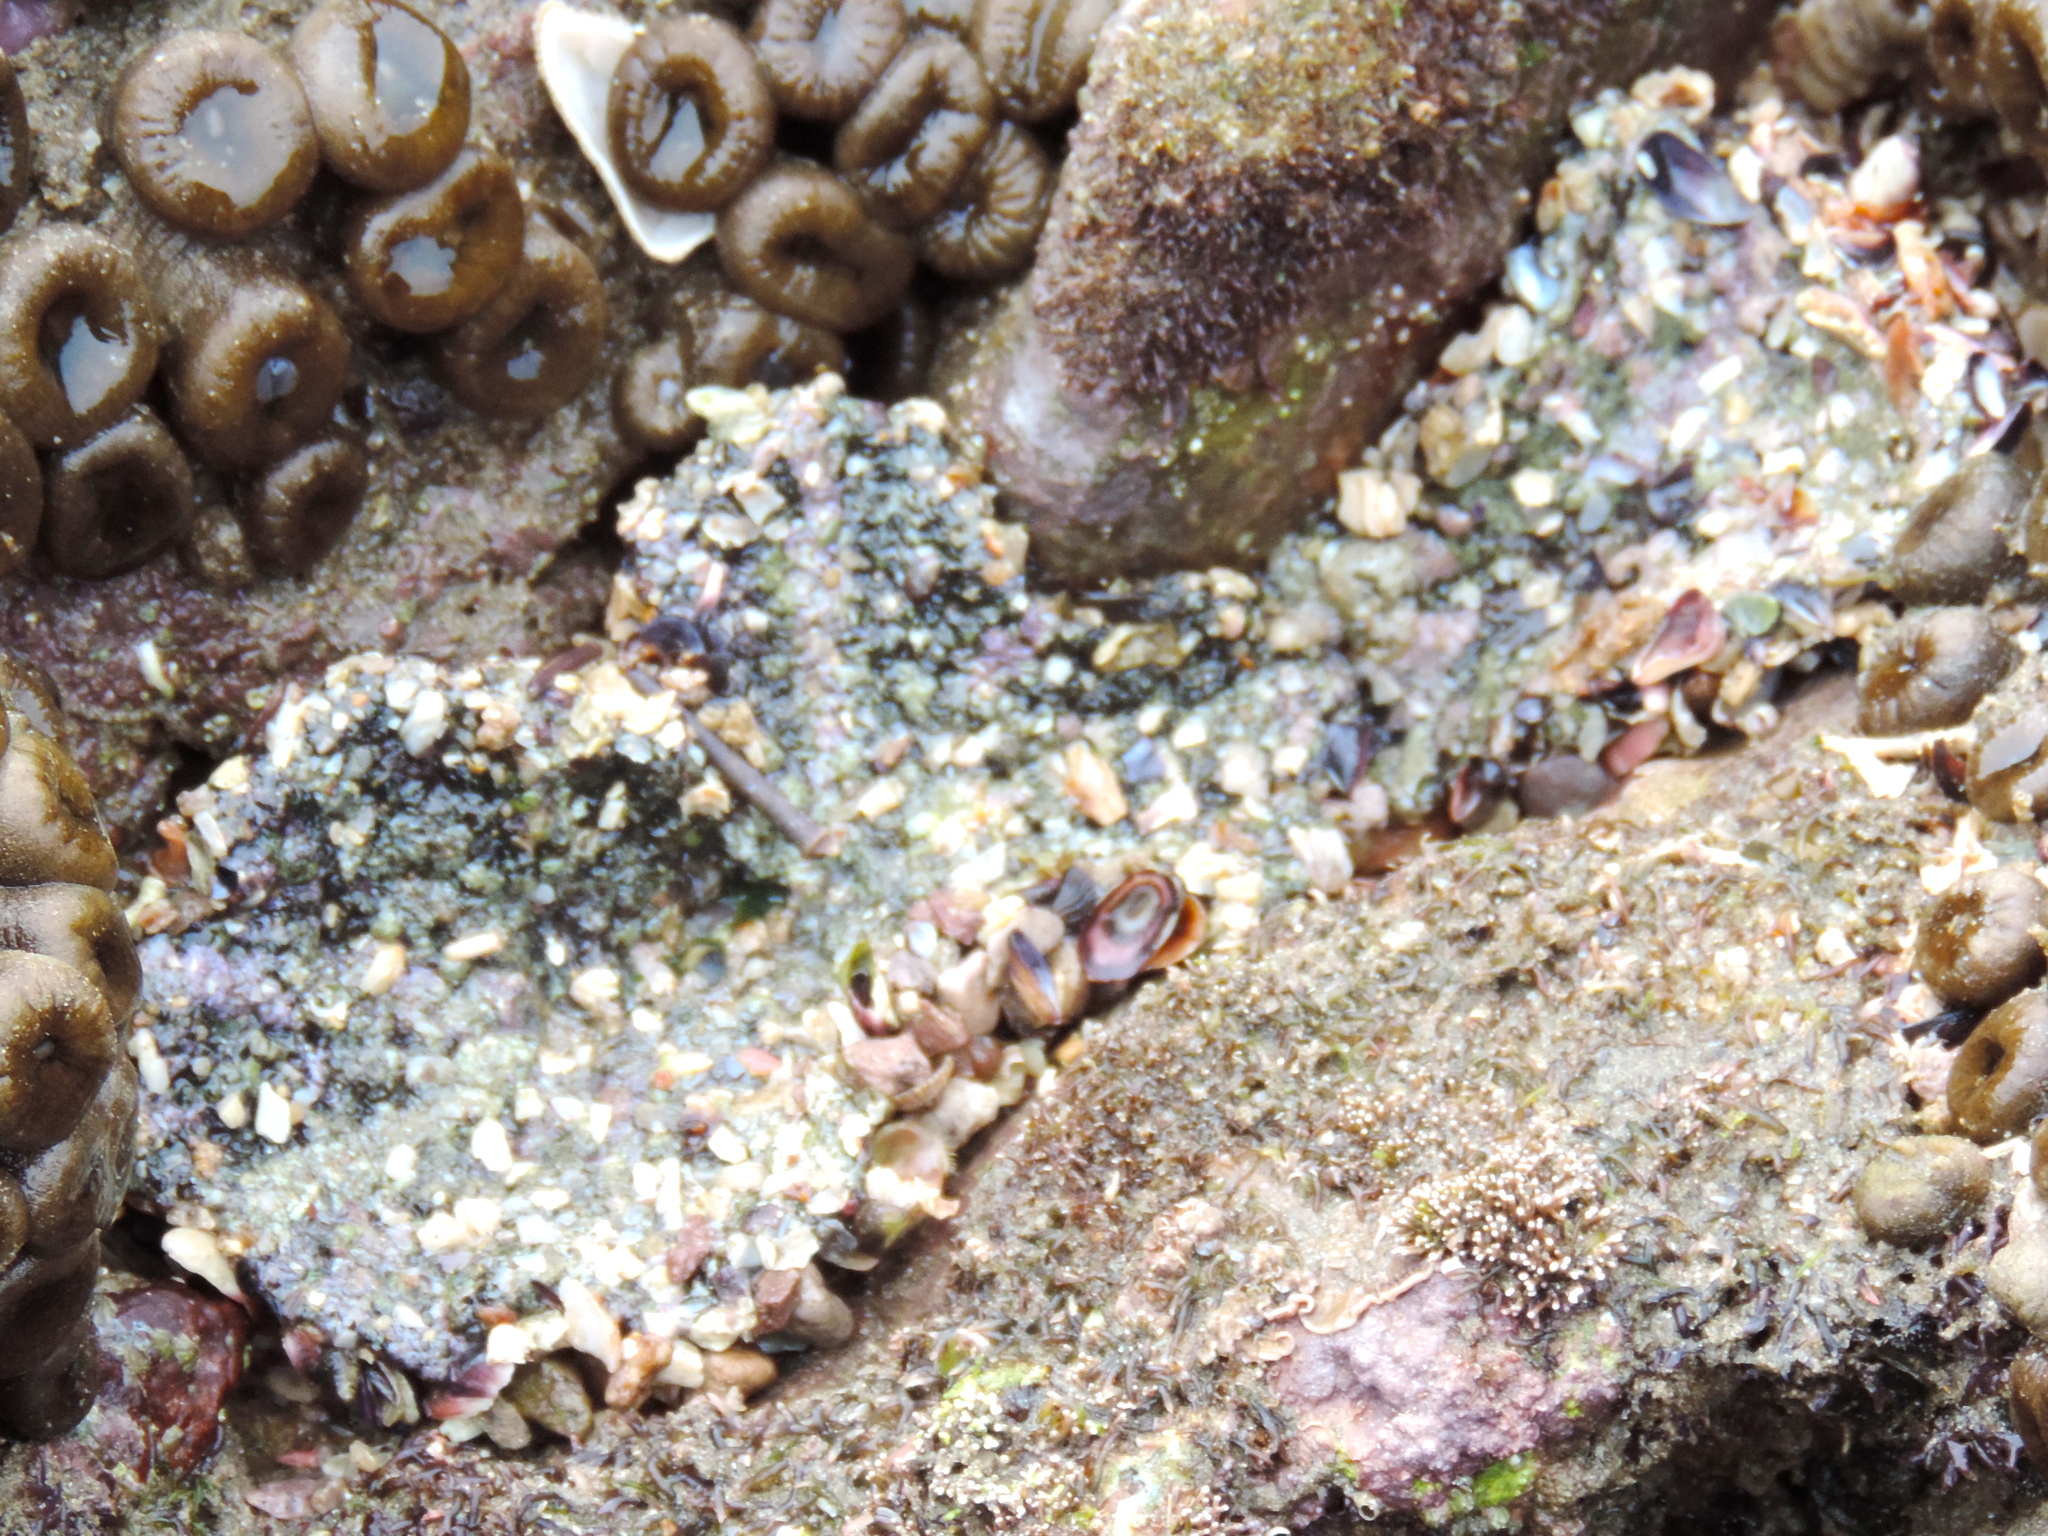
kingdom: Animalia
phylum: Cnidaria
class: Anthozoa
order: Actiniaria
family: Actiniidae
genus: Actinostella
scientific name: Actinostella
